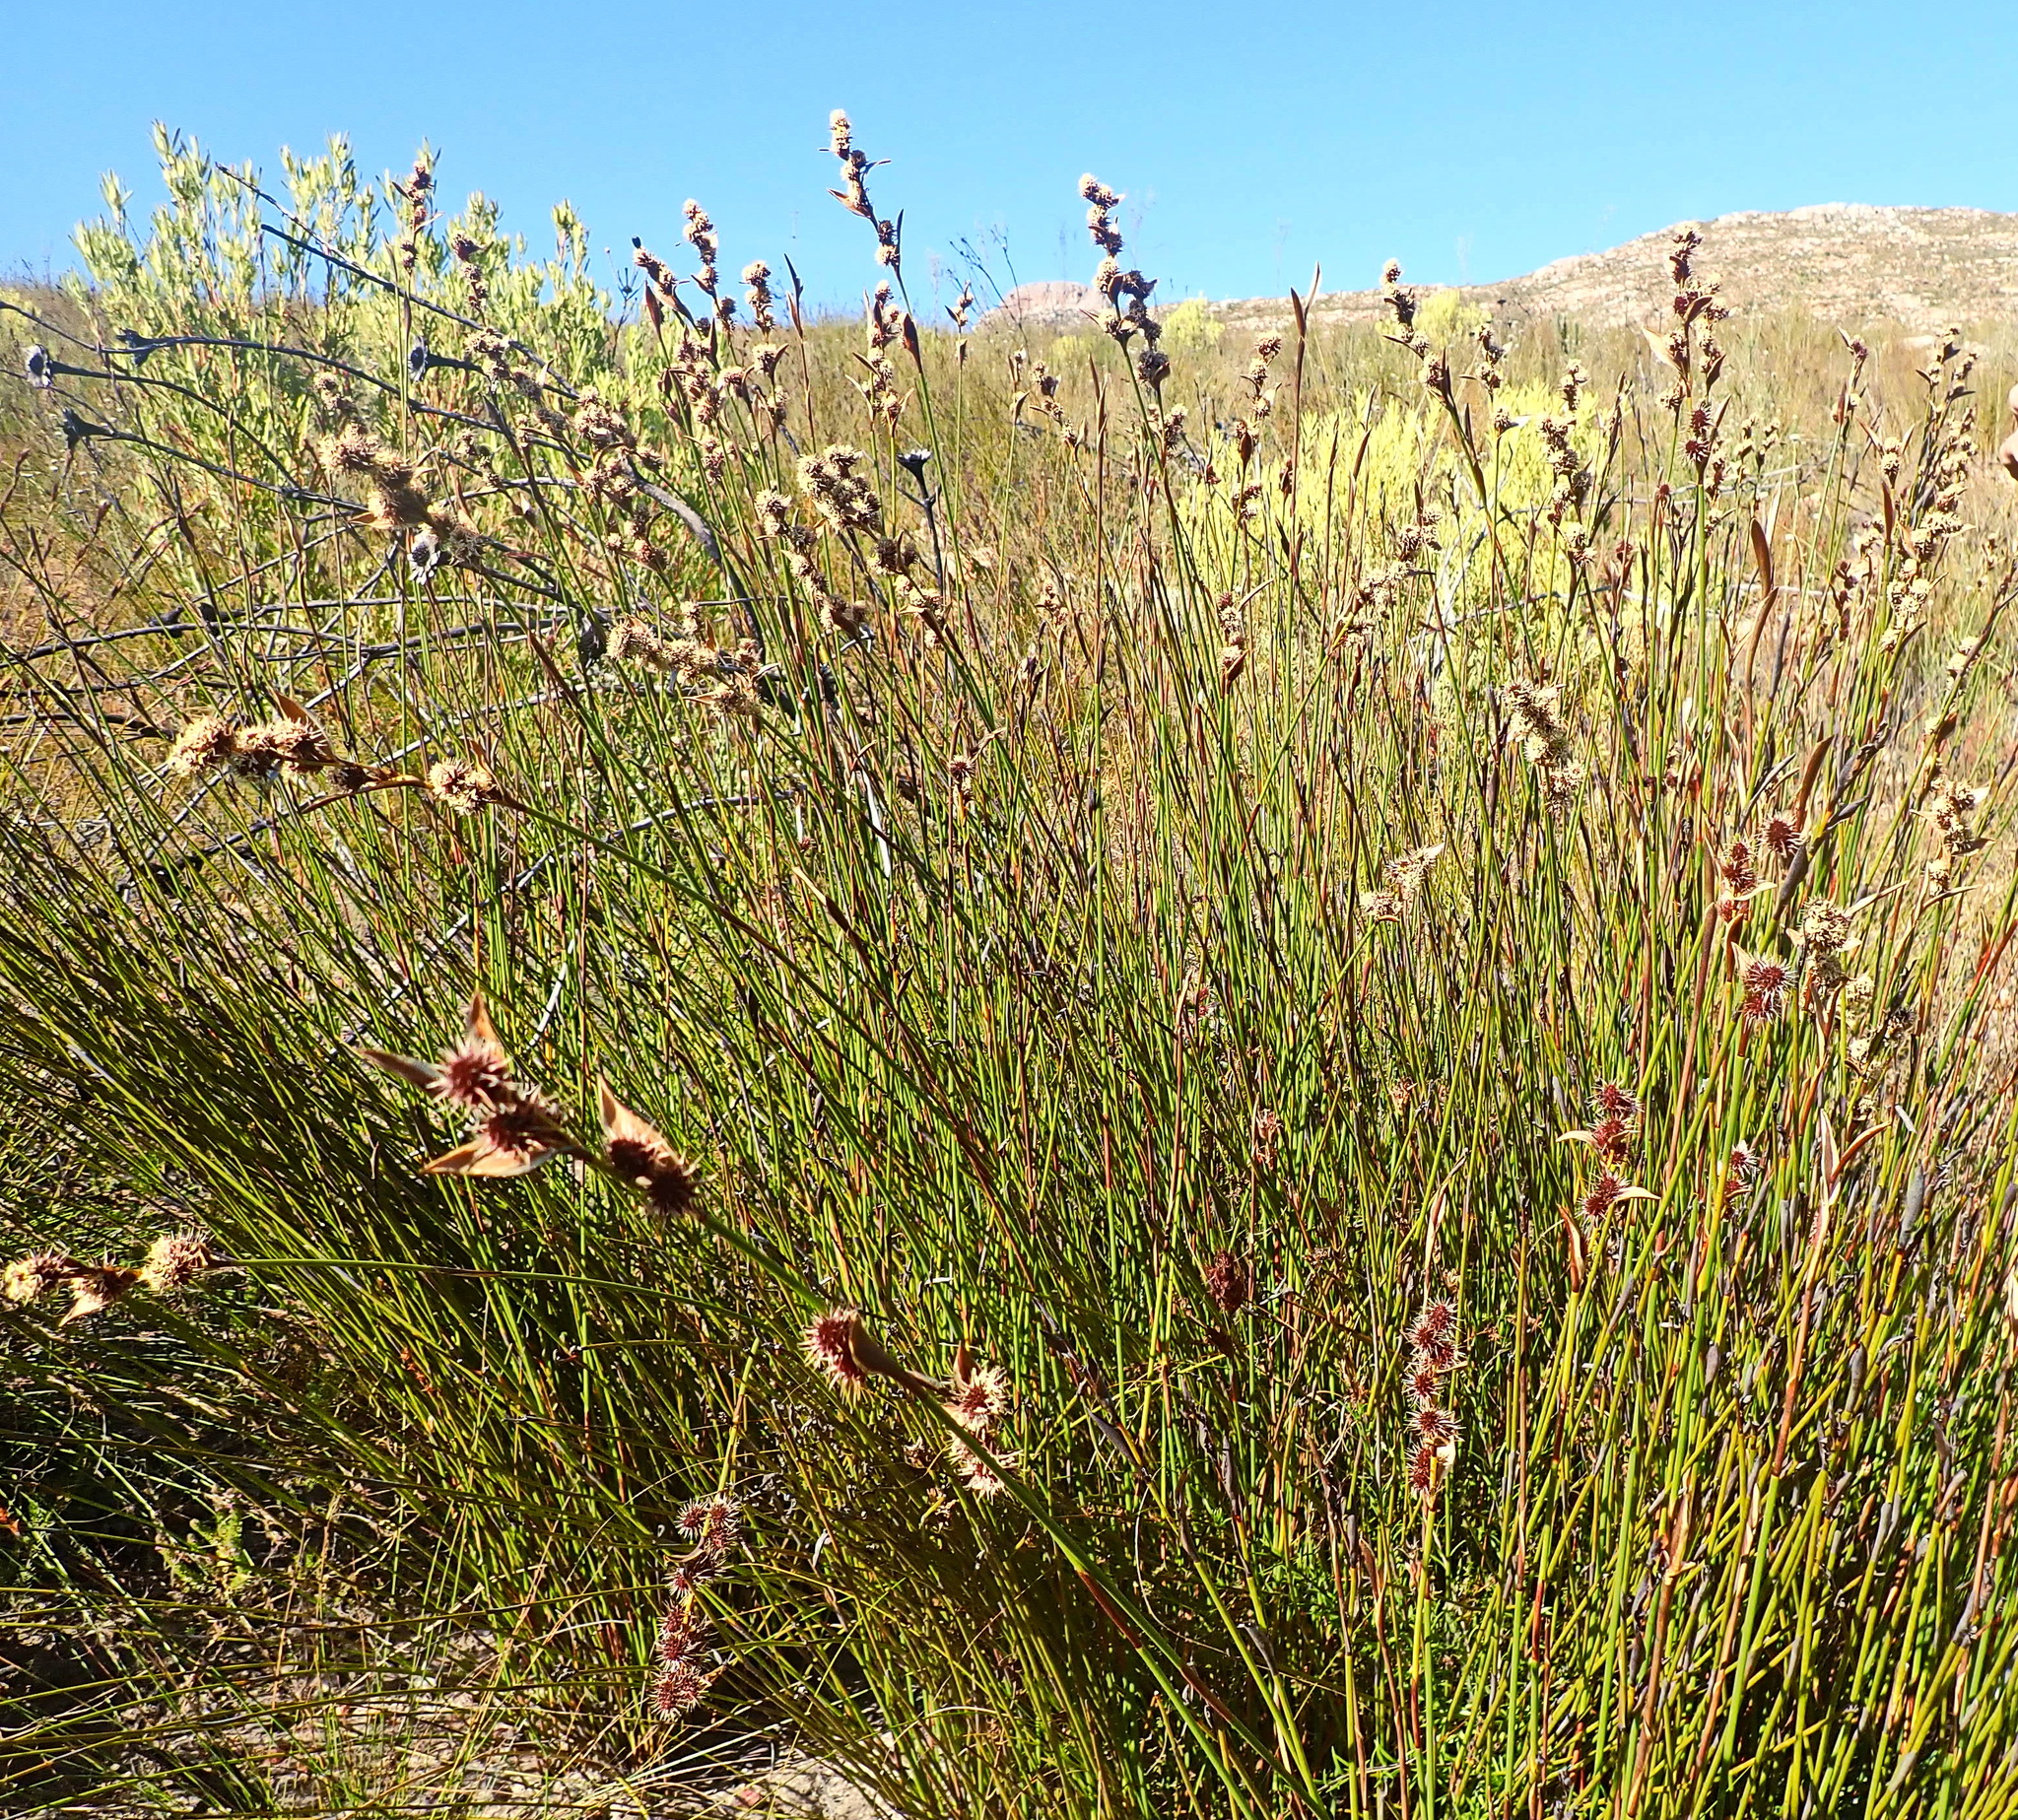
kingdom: Plantae
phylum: Tracheophyta
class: Liliopsida
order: Poales
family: Restionaceae
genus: Hypodiscus
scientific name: Hypodiscus aristatus
